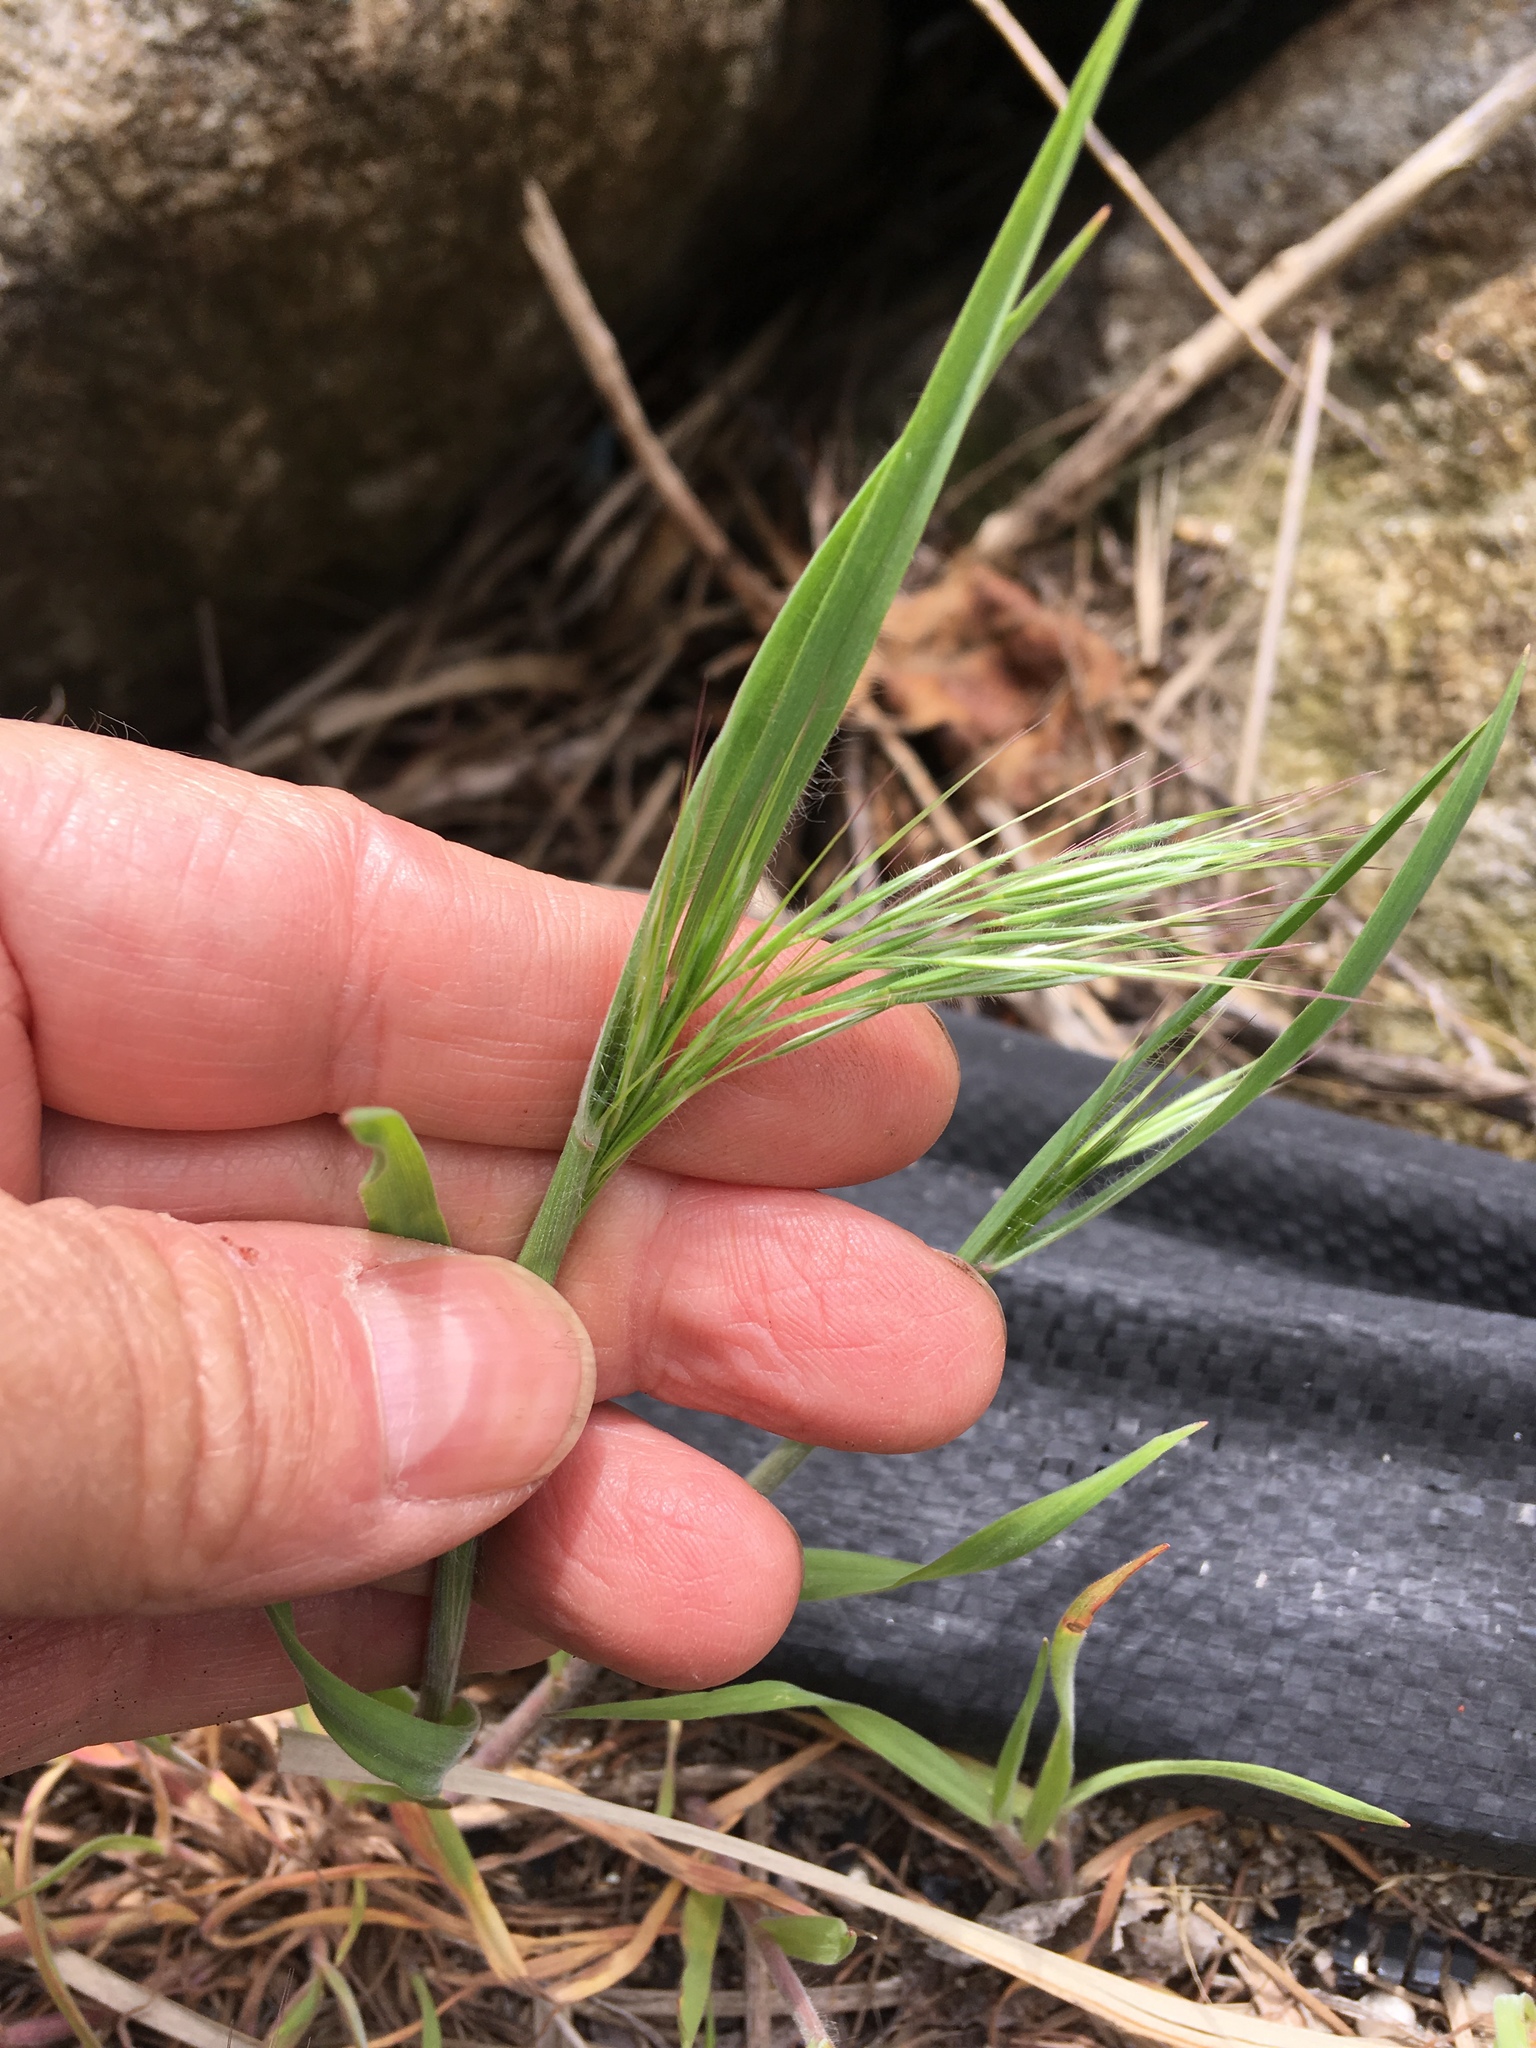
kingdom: Plantae
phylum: Tracheophyta
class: Liliopsida
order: Poales
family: Poaceae
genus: Bromus
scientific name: Bromus tectorum
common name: Cheatgrass
